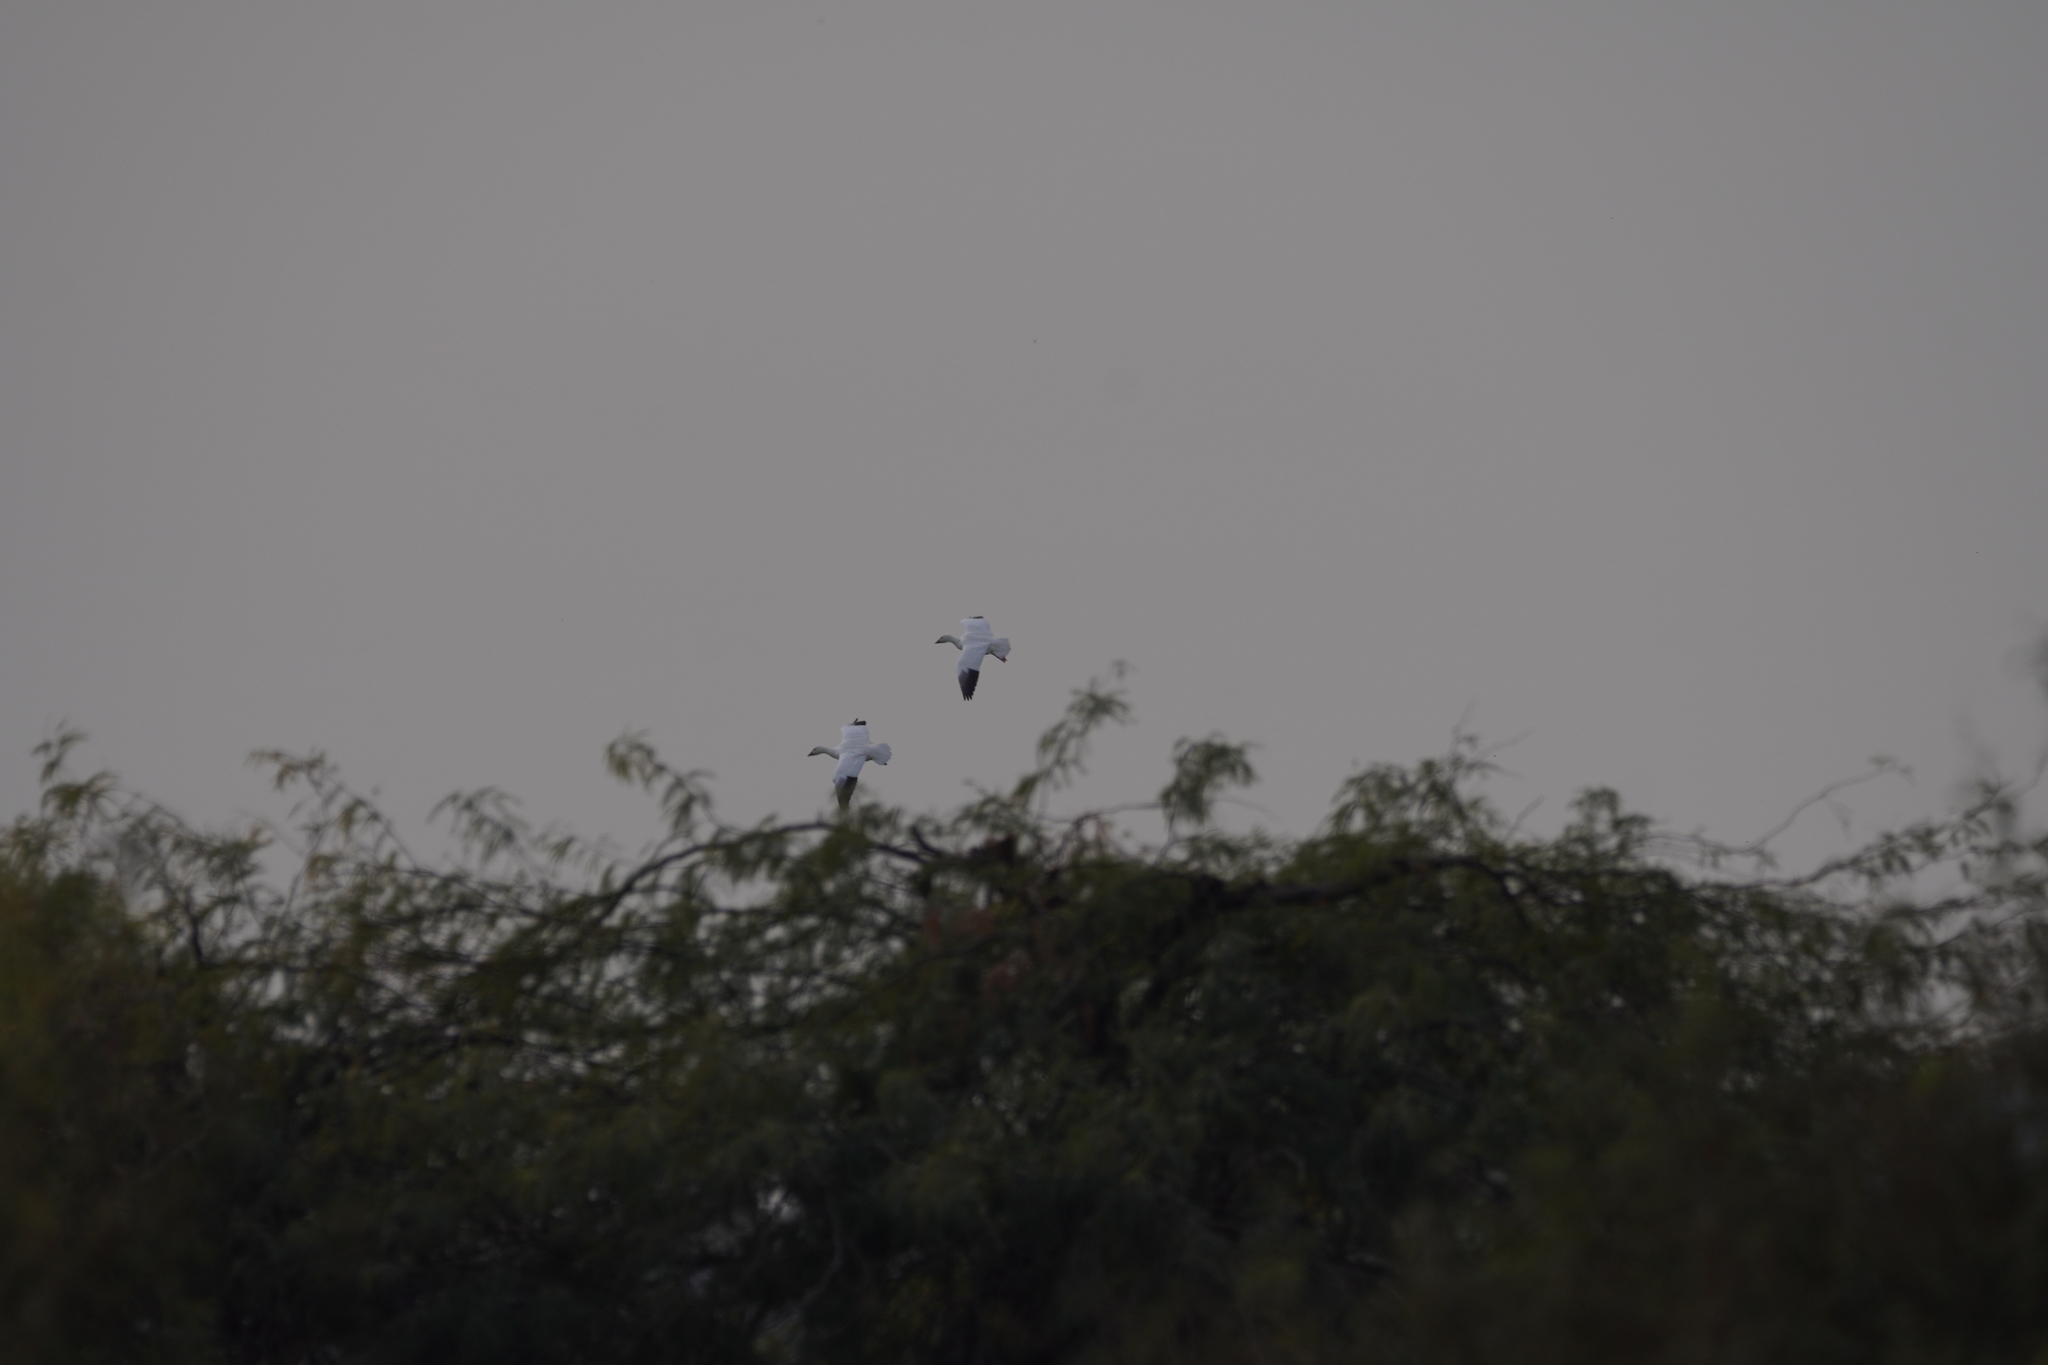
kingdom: Animalia
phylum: Chordata
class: Aves
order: Anseriformes
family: Anatidae
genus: Anser
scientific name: Anser caerulescens
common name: Snow goose
